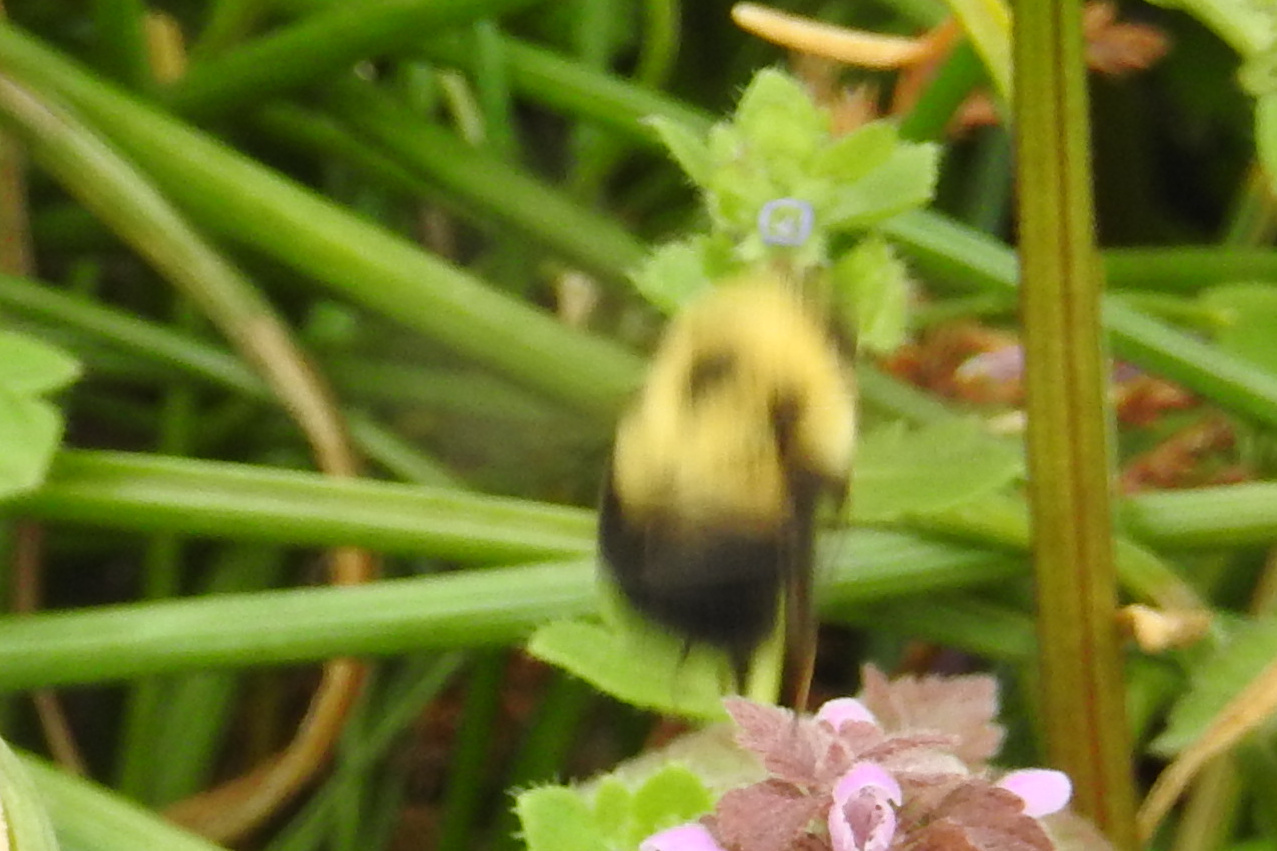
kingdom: Animalia
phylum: Arthropoda
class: Insecta
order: Hymenoptera
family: Apidae
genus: Bombus
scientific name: Bombus bimaculatus
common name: Two-spotted bumble bee
